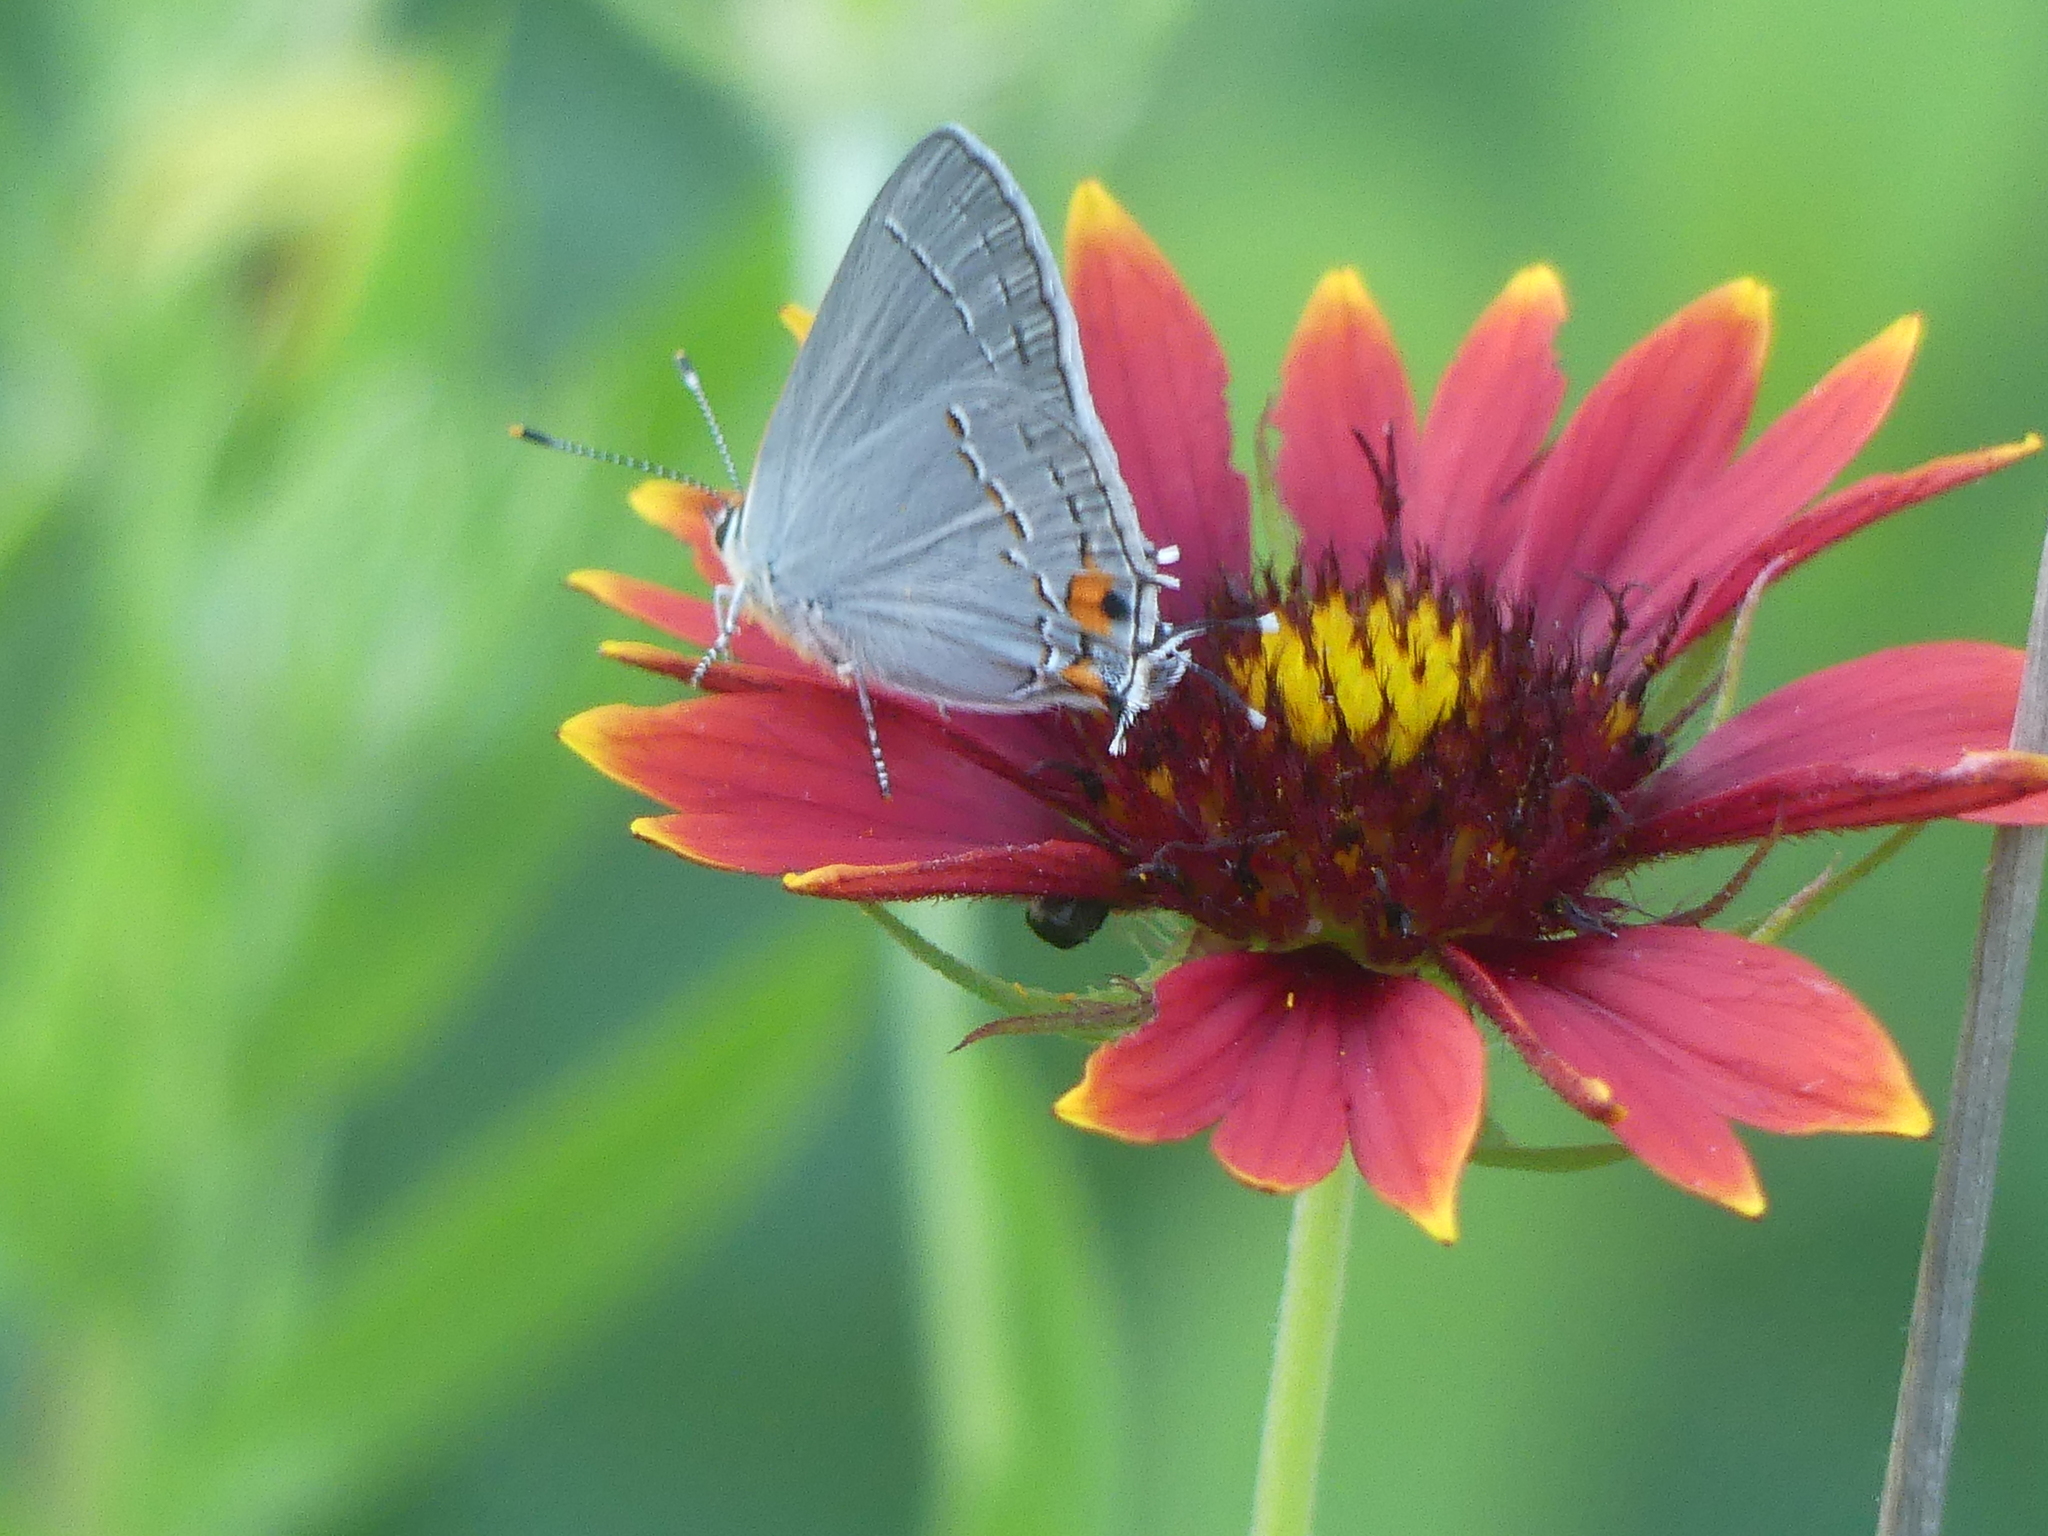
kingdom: Animalia
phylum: Arthropoda
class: Insecta
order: Lepidoptera
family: Lycaenidae
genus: Strymon
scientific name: Strymon melinus
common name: Gray hairstreak
